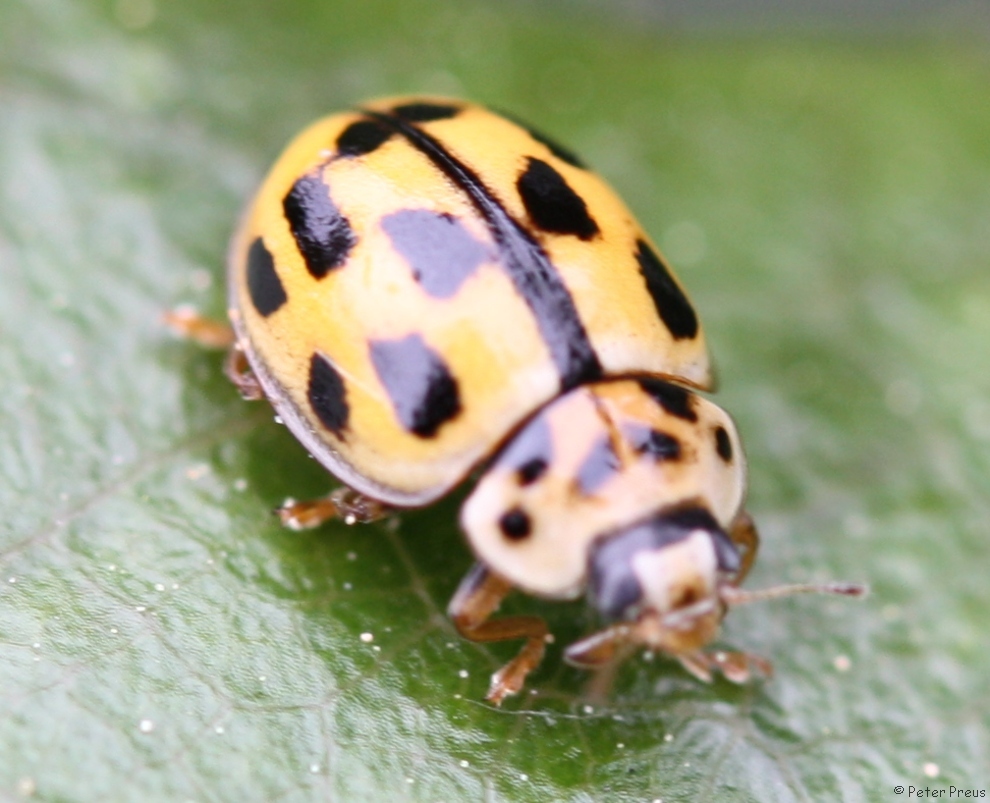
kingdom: Animalia
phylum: Arthropoda
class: Insecta
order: Coleoptera
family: Coccinellidae
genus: Propylaea
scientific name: Propylaea quatuordecimpunctata
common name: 14-spotted ladybird beetle
